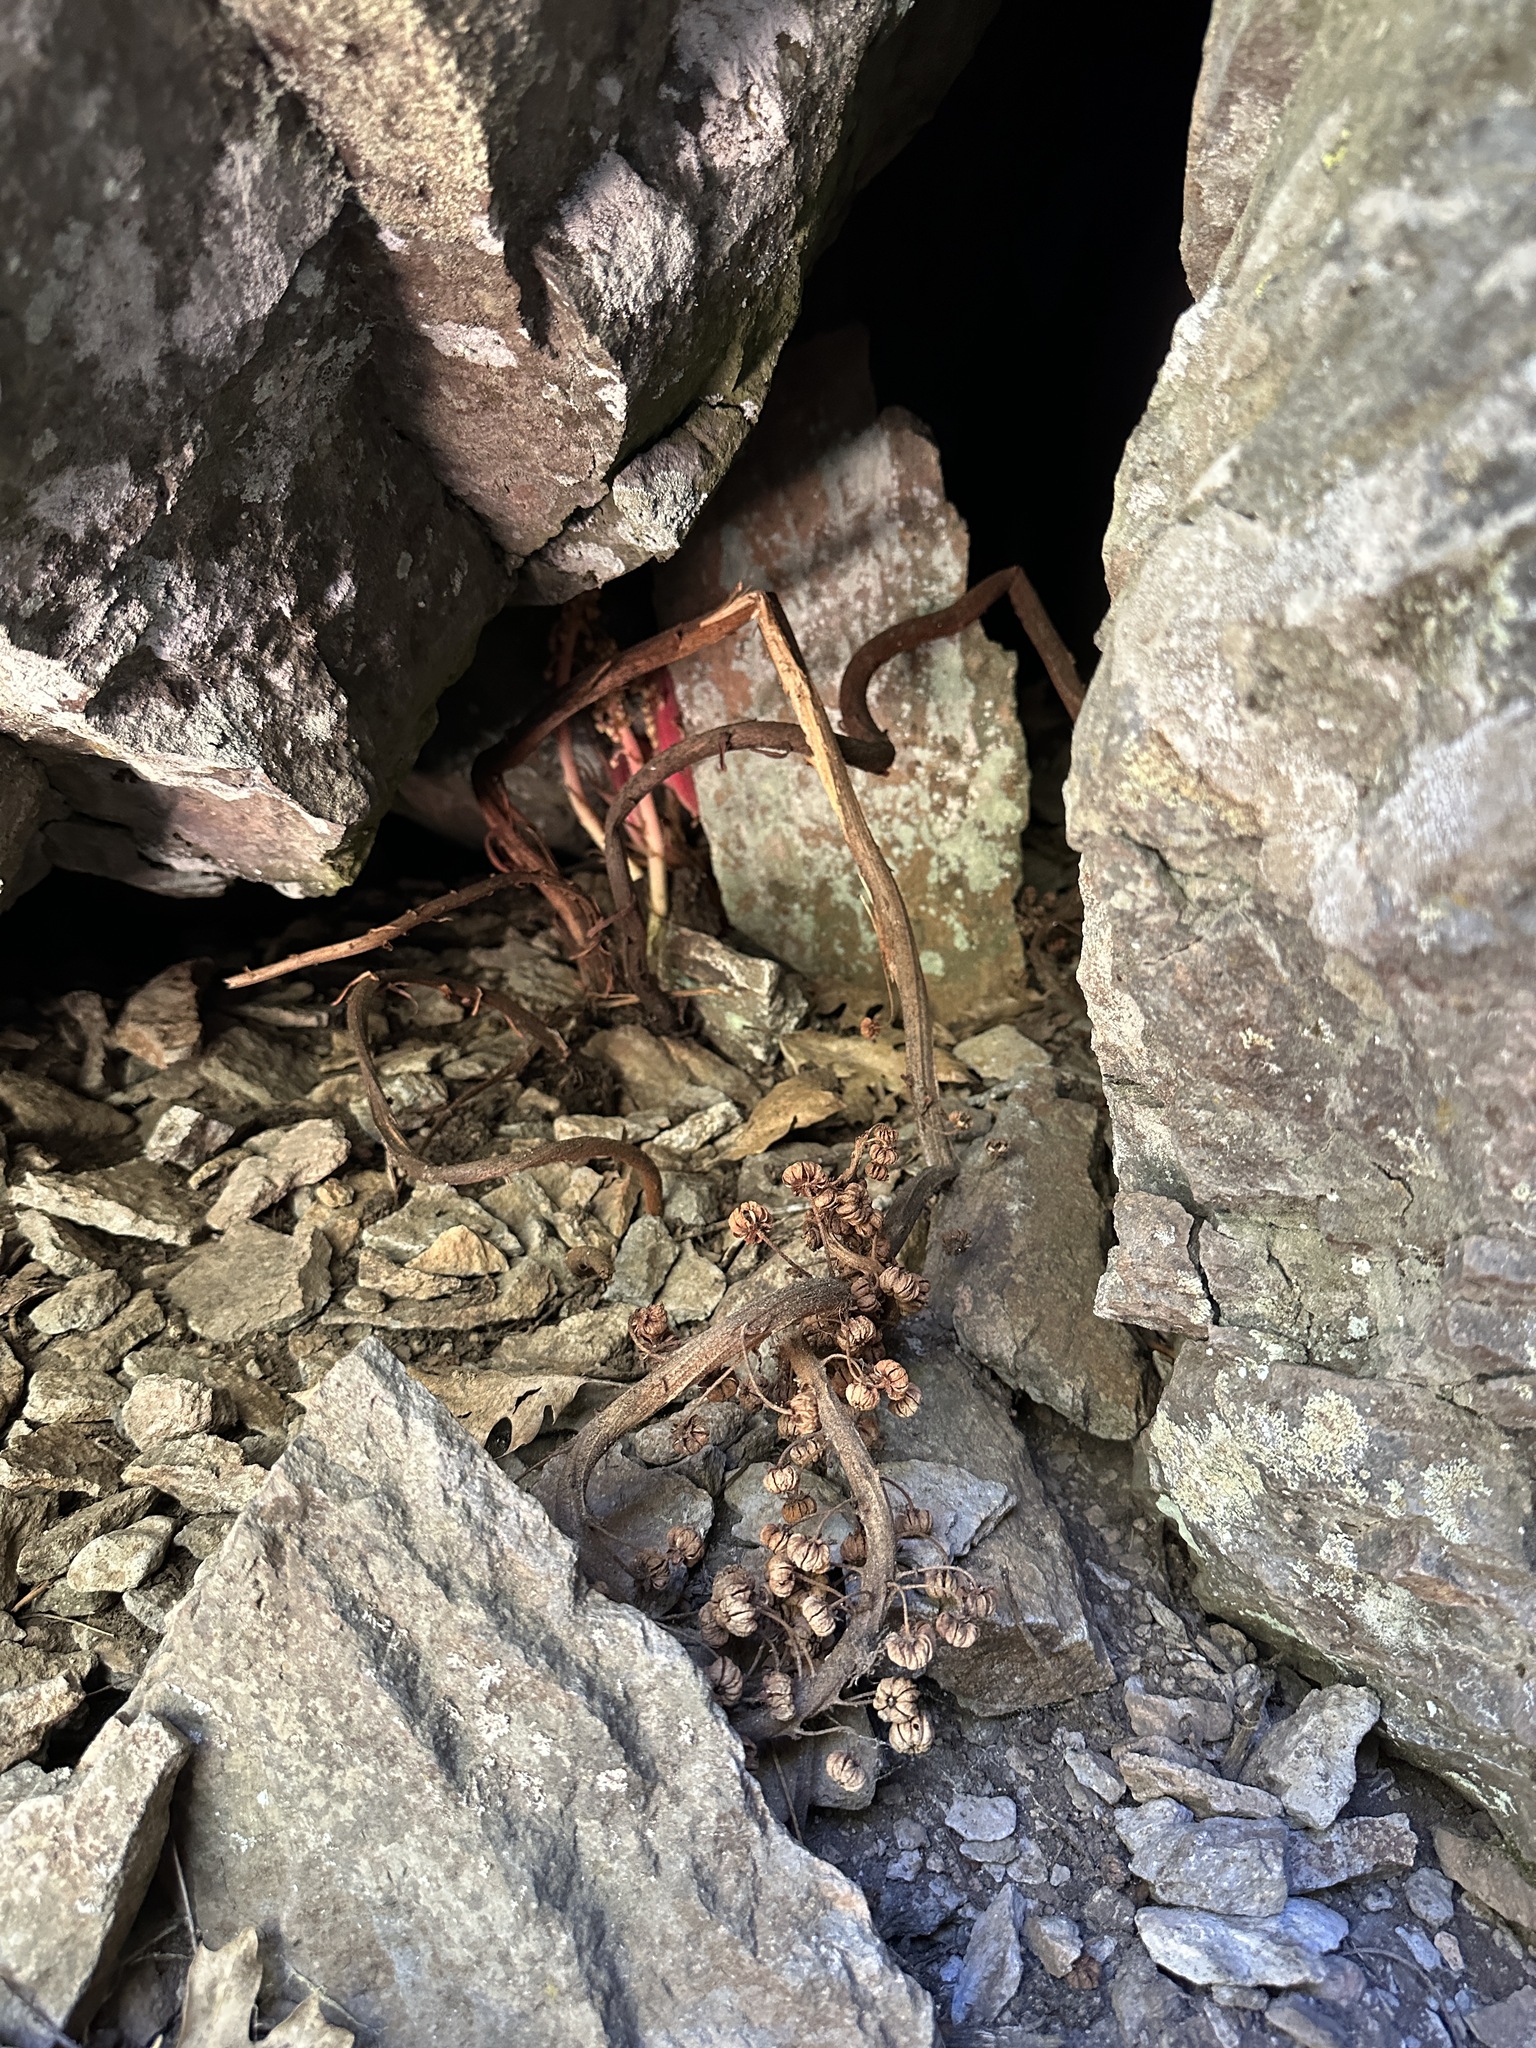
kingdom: Plantae
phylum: Tracheophyta
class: Magnoliopsida
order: Ericales
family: Ericaceae
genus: Pterospora
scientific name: Pterospora andromedea
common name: Giant bird's-nest
